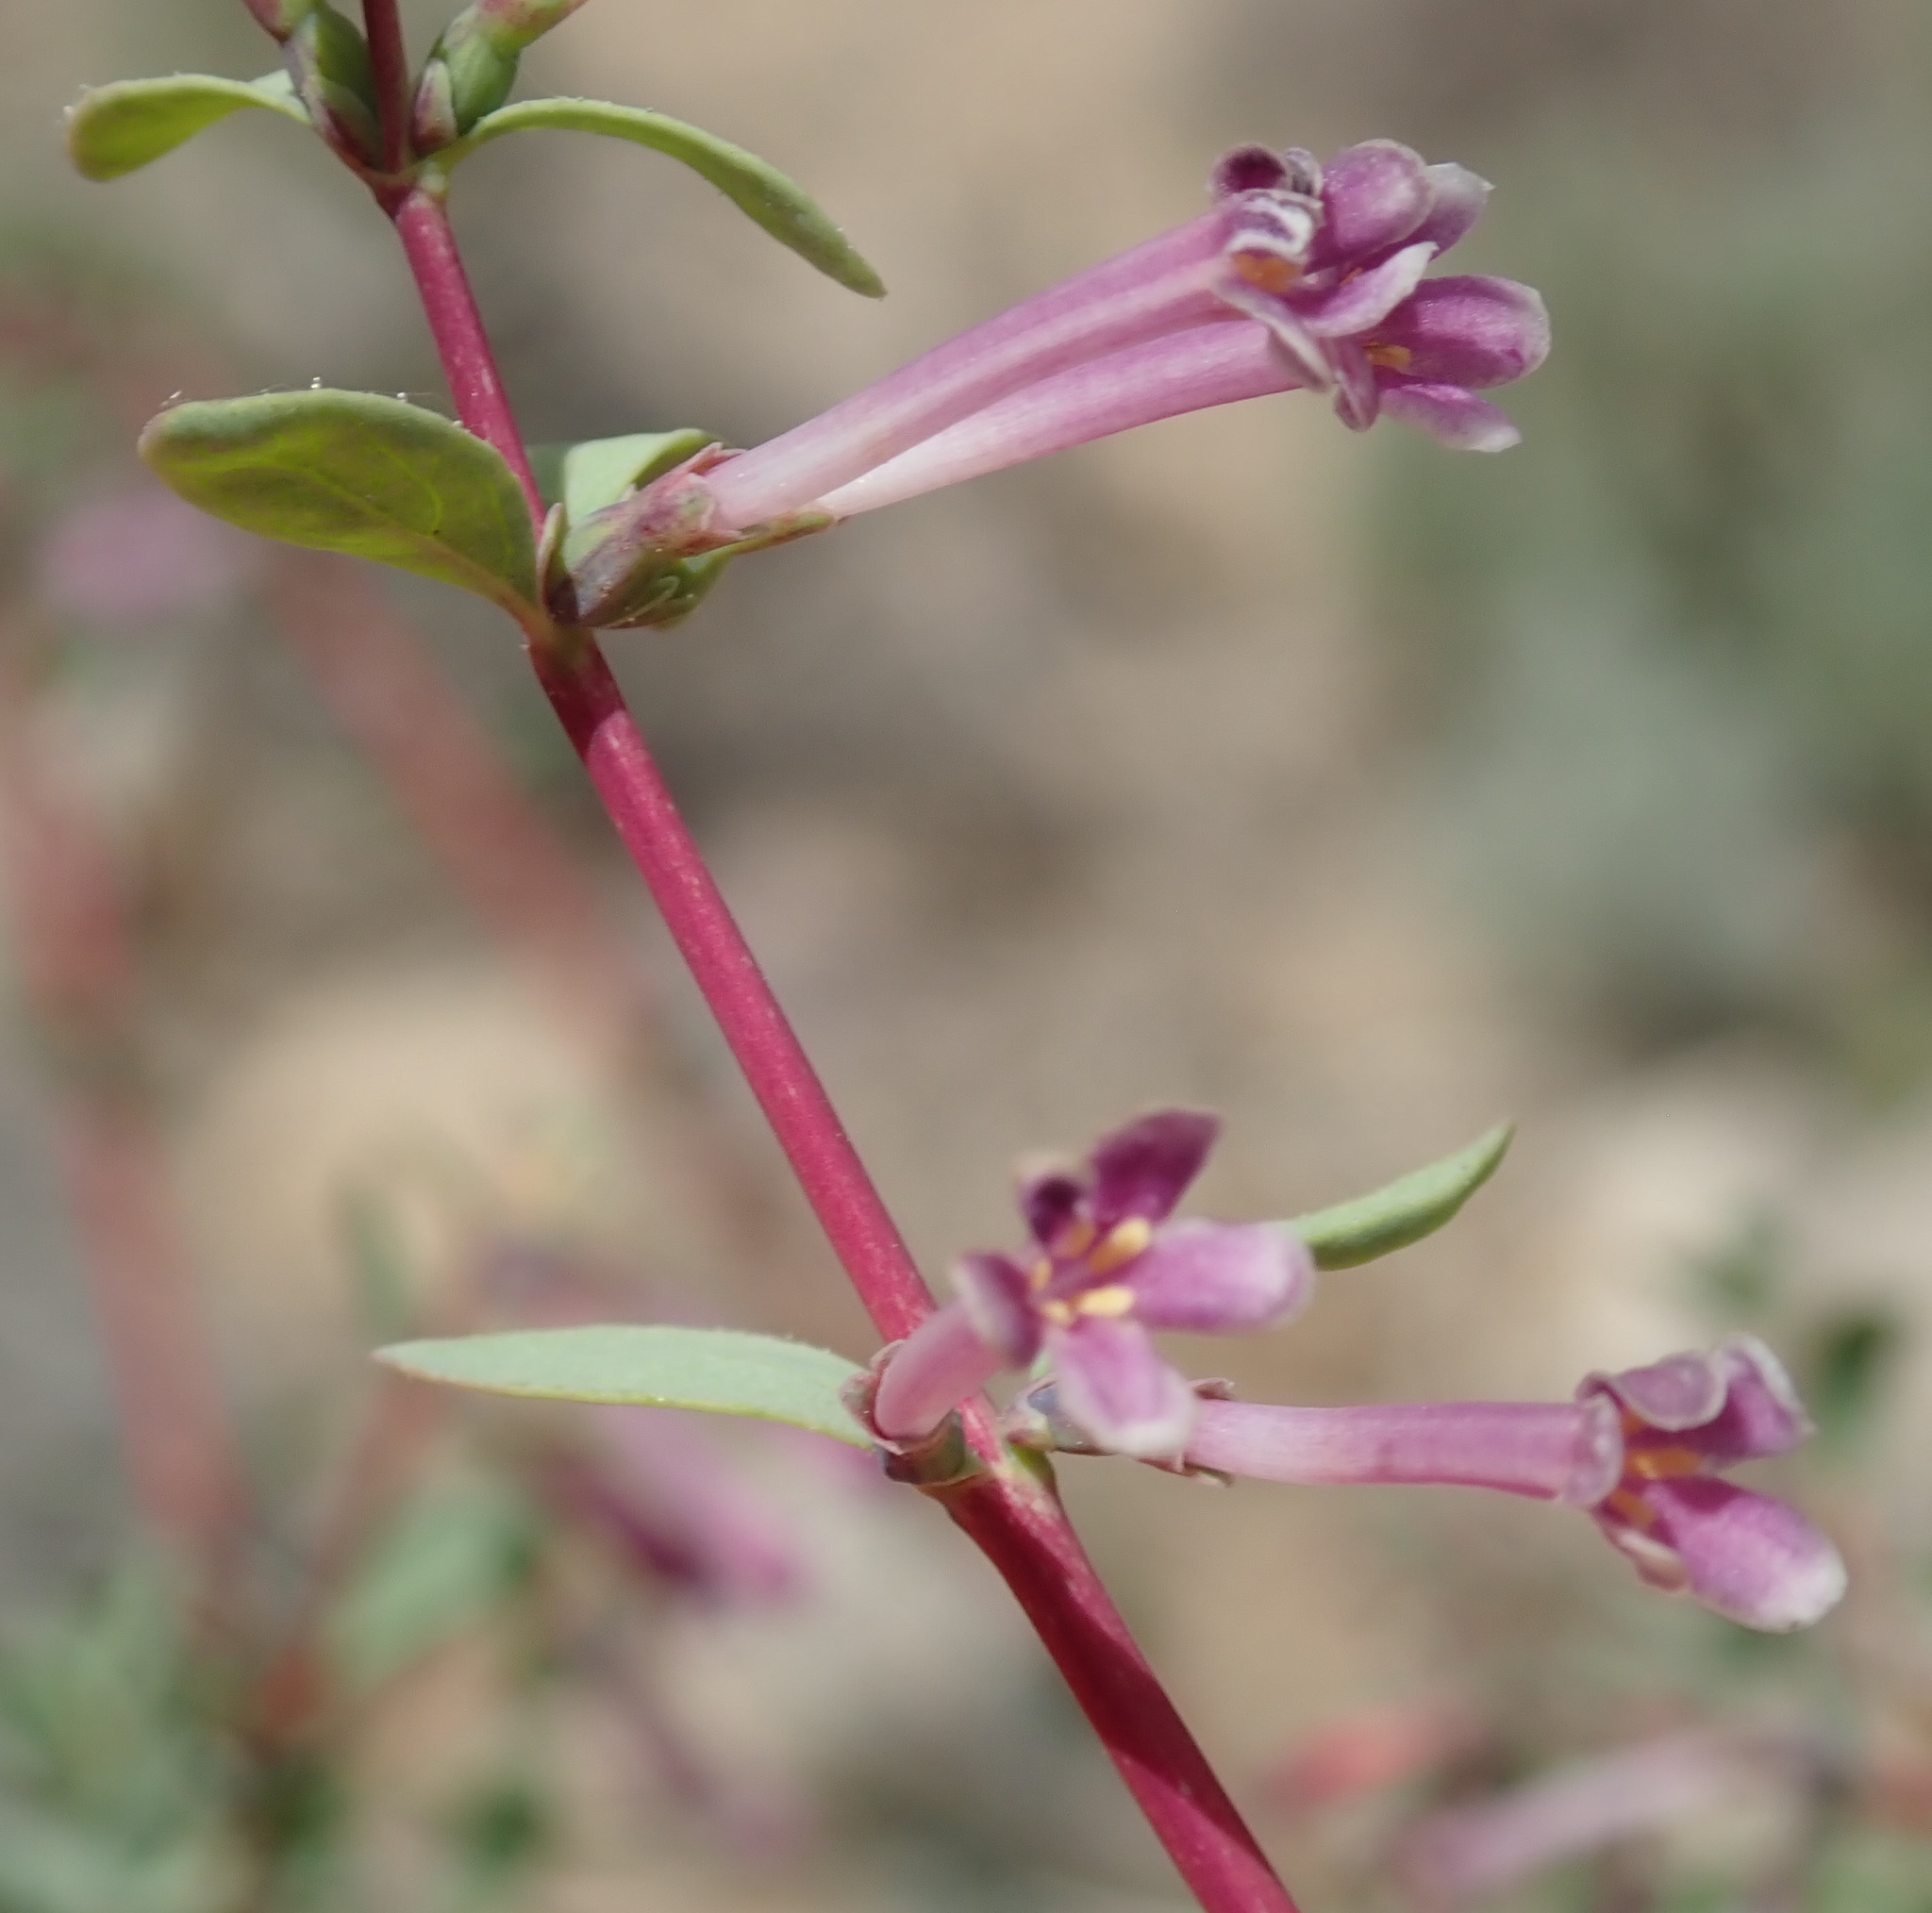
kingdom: Plantae
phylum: Tracheophyta
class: Magnoliopsida
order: Dipsacales
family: Caprifoliaceae
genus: Symphoricarpos
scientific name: Symphoricarpos longiflorus
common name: Fragrant snowberry
